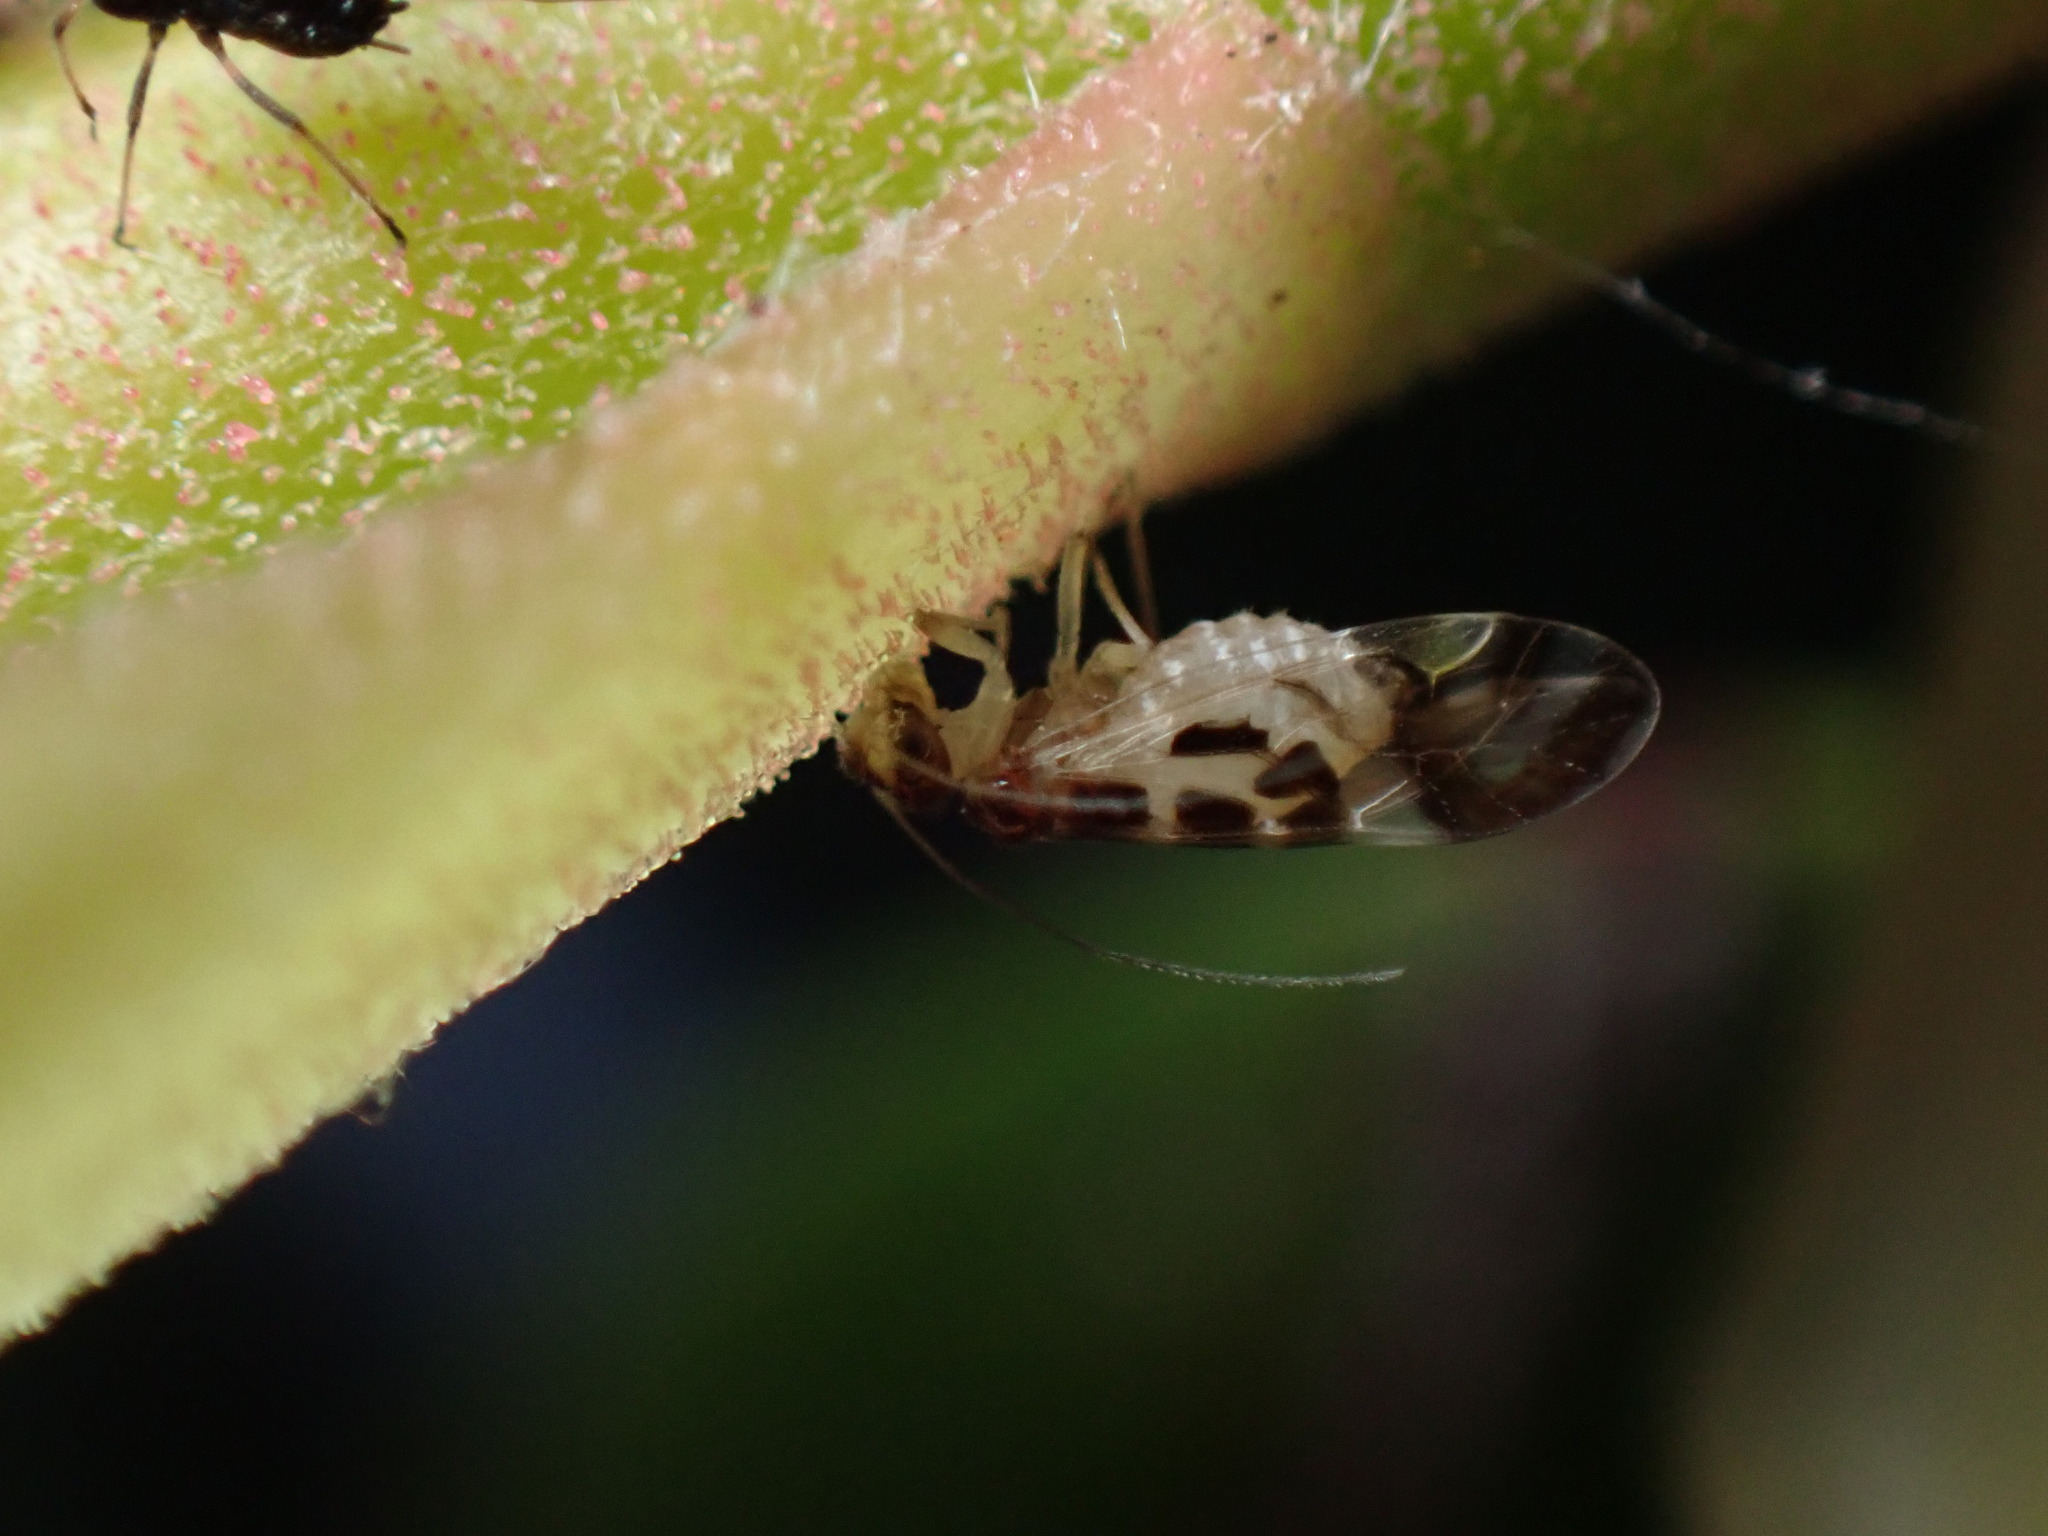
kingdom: Animalia
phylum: Arthropoda
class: Insecta
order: Psocodea
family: Stenopsocidae
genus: Graphopsocus
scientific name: Graphopsocus cruciatus
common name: Lizard bark louse
